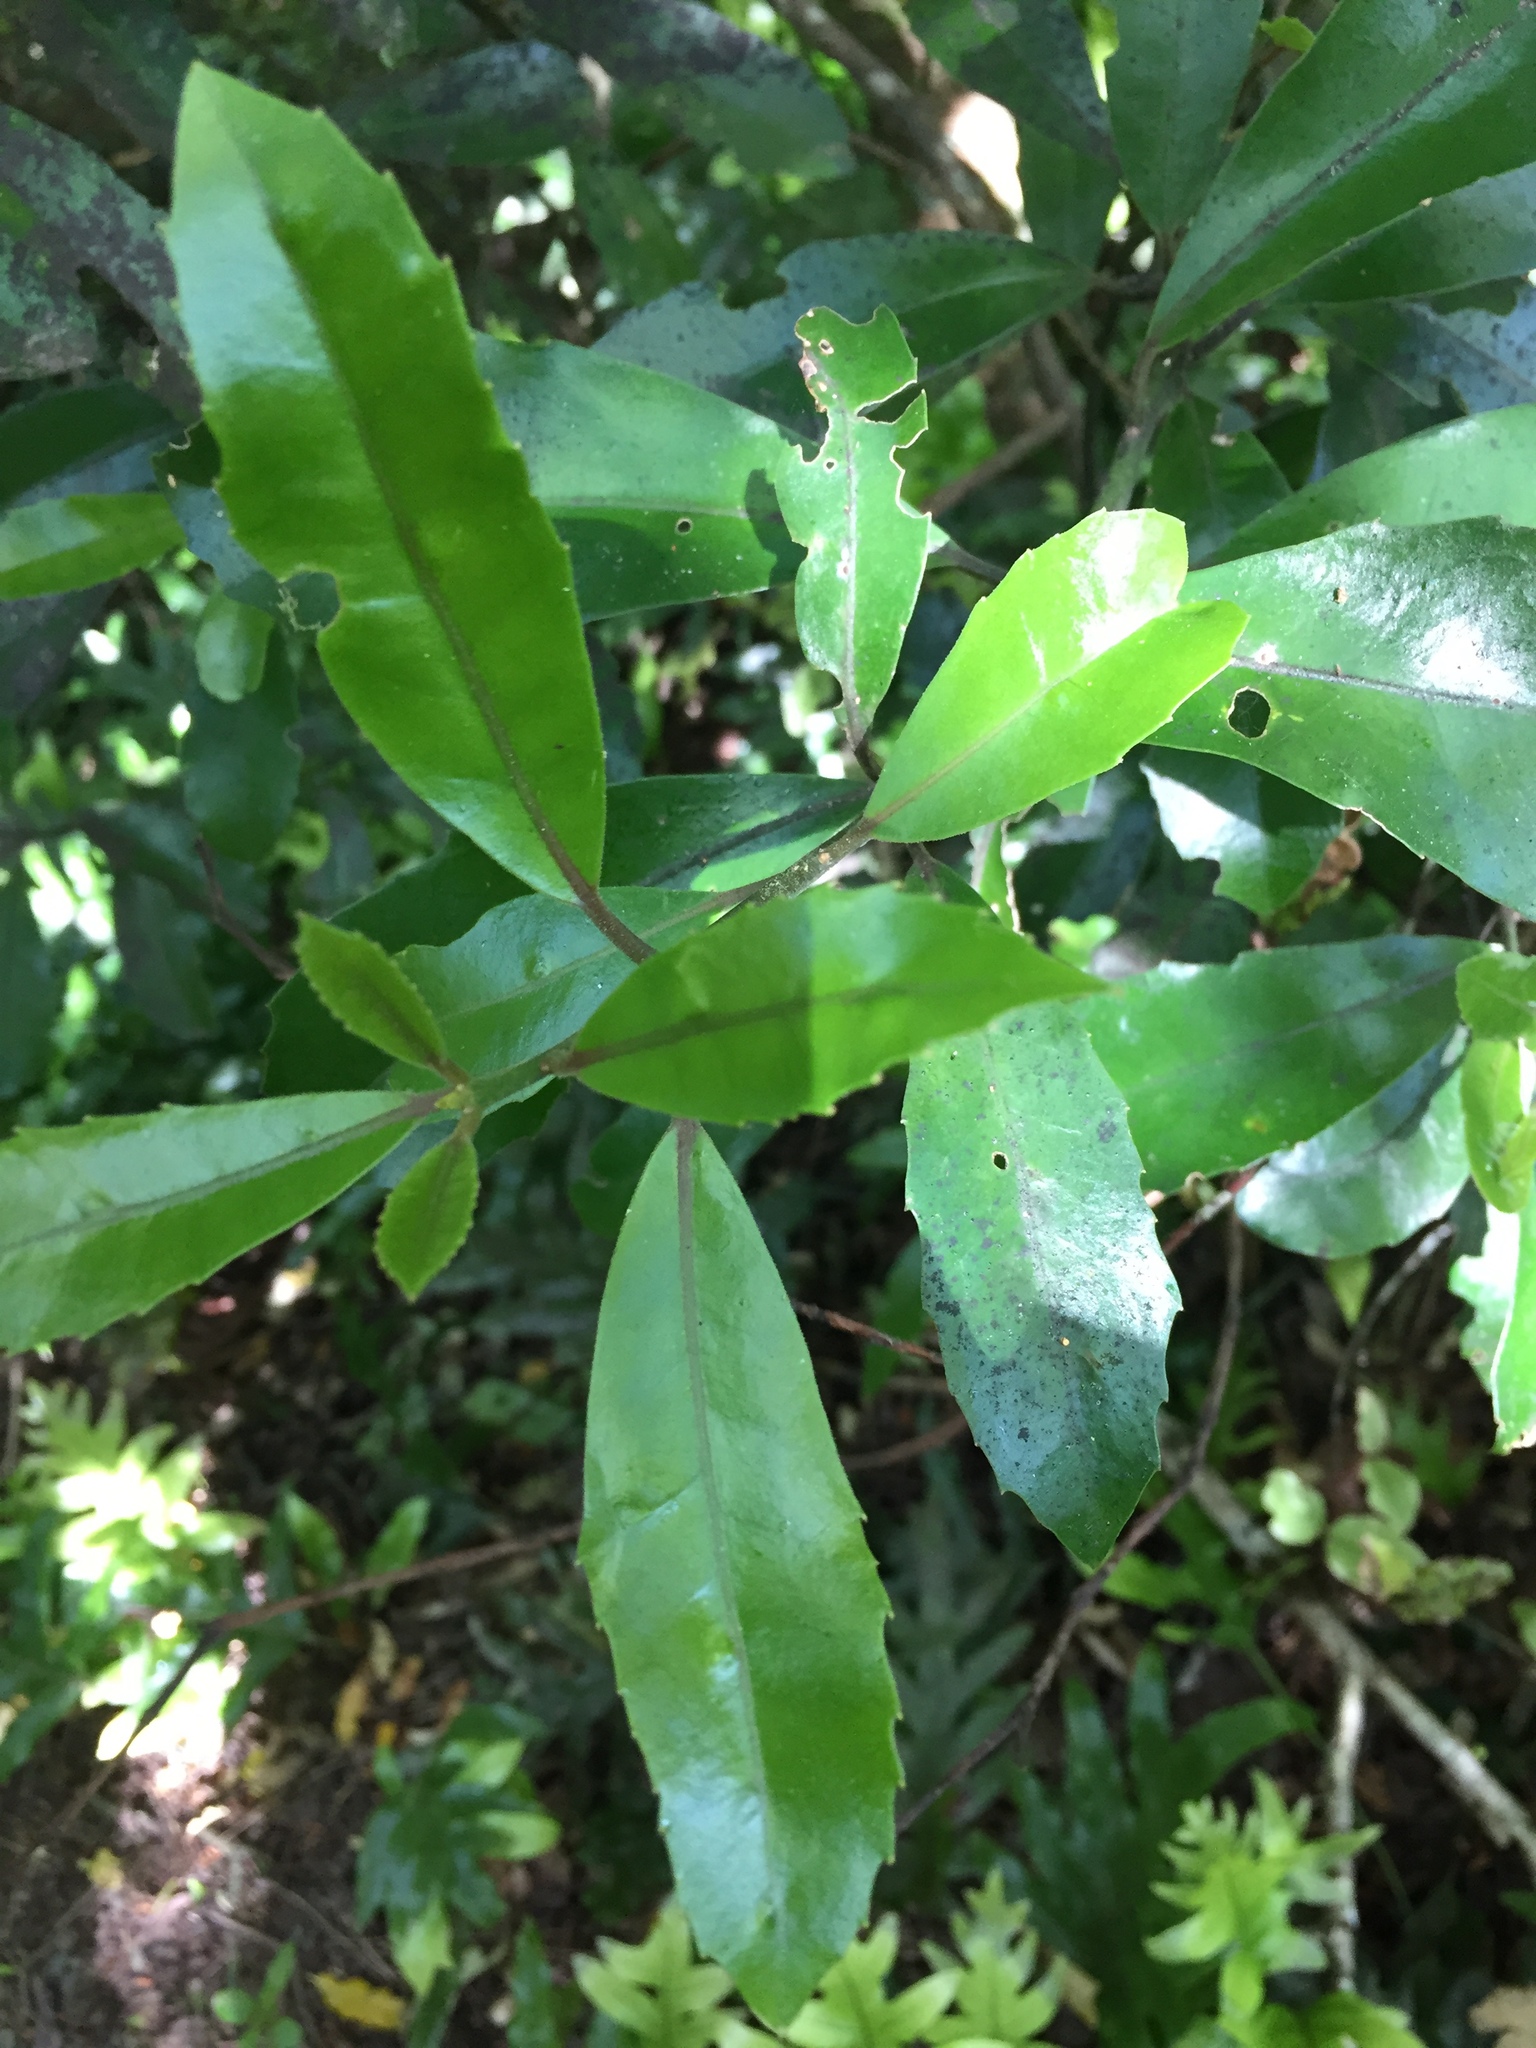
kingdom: Plantae
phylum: Tracheophyta
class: Magnoliopsida
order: Laurales
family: Monimiaceae
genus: Hedycarya
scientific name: Hedycarya arborea
